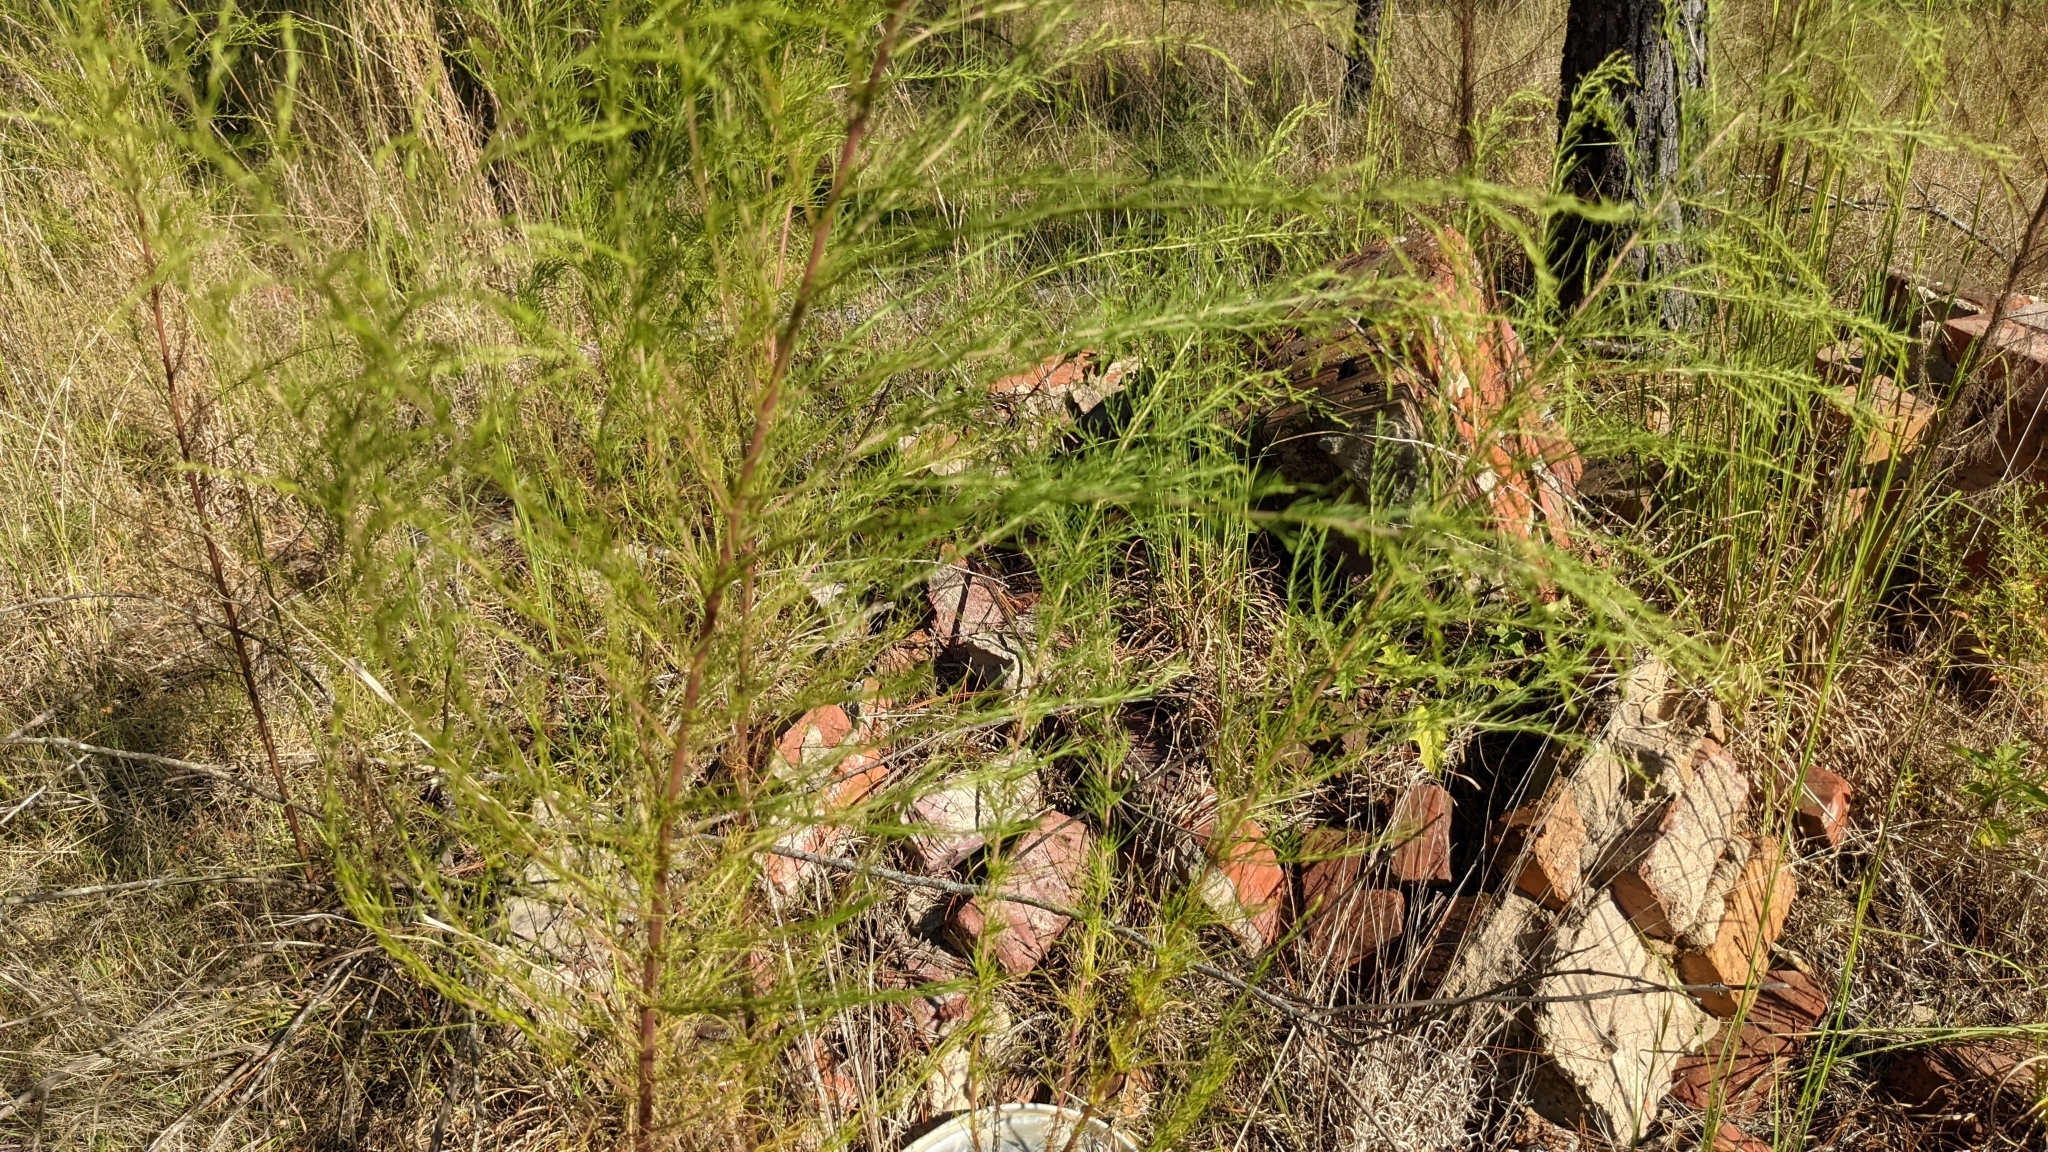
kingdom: Plantae
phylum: Tracheophyta
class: Magnoliopsida
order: Asterales
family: Asteraceae
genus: Eupatorium
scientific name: Eupatorium capillifolium
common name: Dog-fennel
